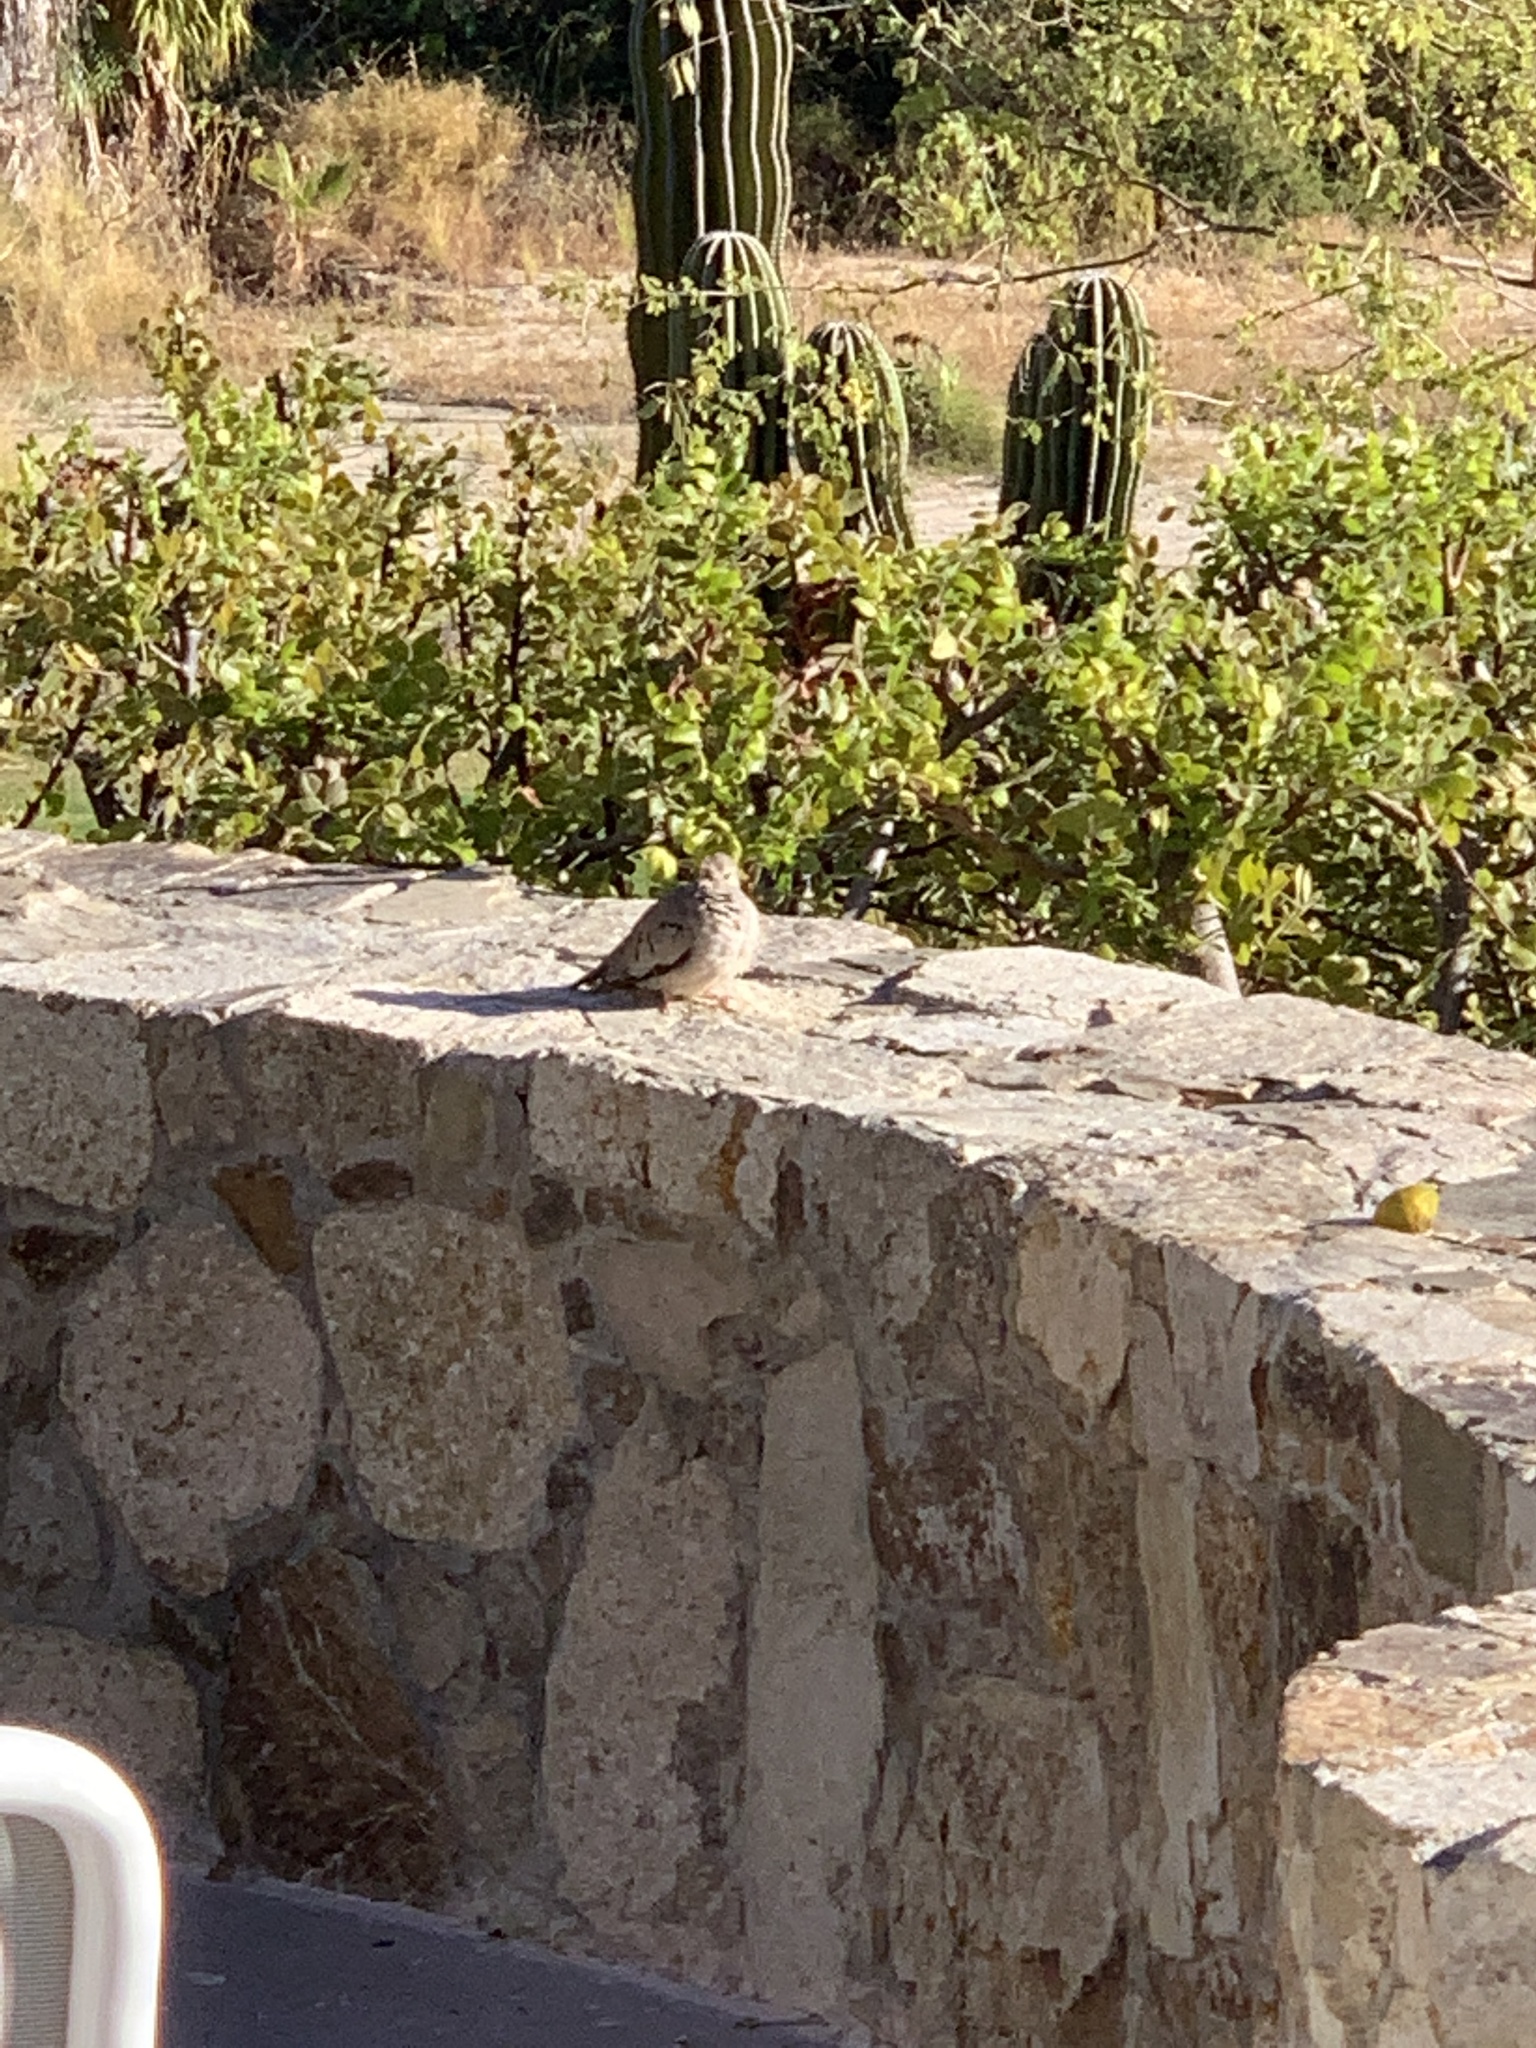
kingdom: Animalia
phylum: Chordata
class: Aves
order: Columbiformes
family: Columbidae
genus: Columbina
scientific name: Columbina passerina
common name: Common ground-dove
